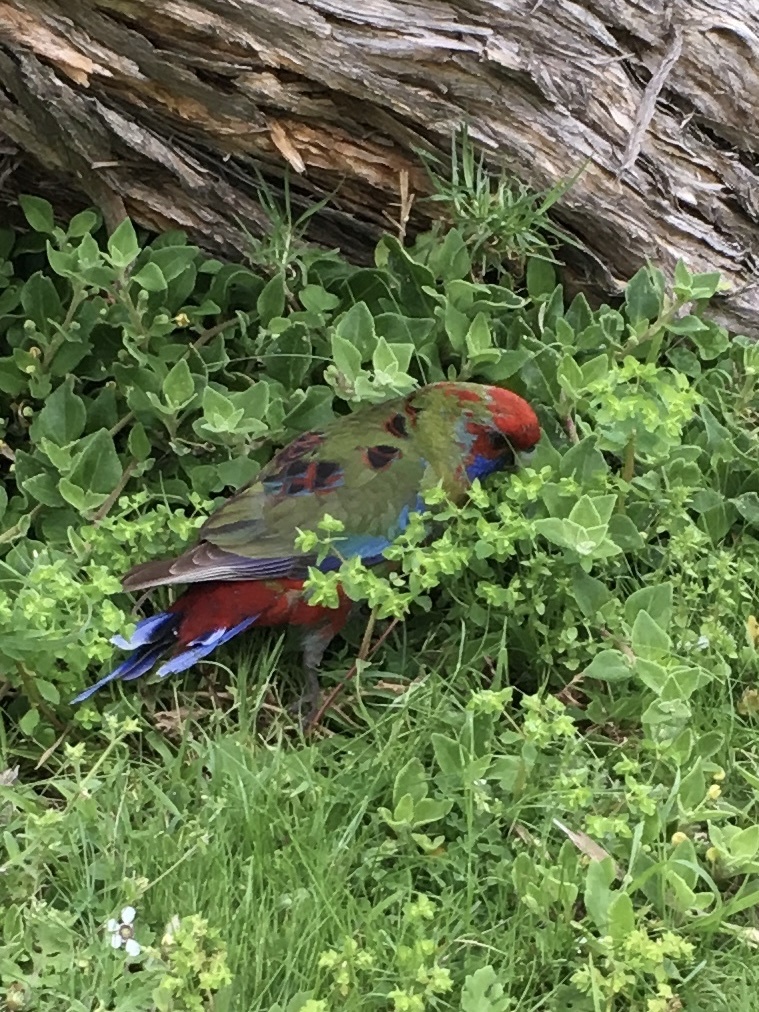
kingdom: Animalia
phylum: Chordata
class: Aves
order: Psittaciformes
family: Psittacidae
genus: Platycercus
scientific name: Platycercus elegans
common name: Crimson rosella
